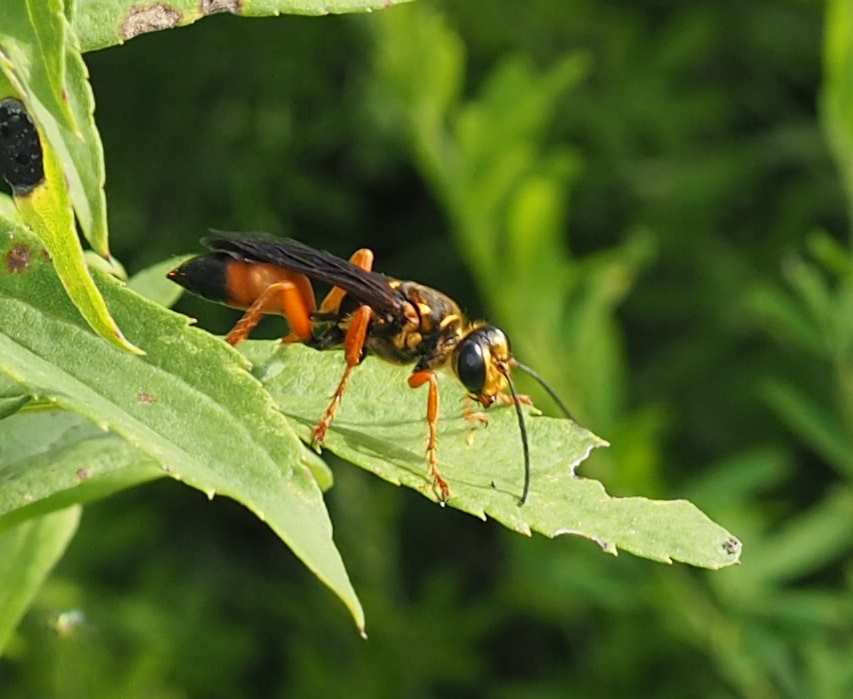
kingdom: Animalia
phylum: Arthropoda
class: Insecta
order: Hymenoptera
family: Sphecidae
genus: Sphex
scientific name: Sphex ichneumoneus
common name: Great golden digger wasp
